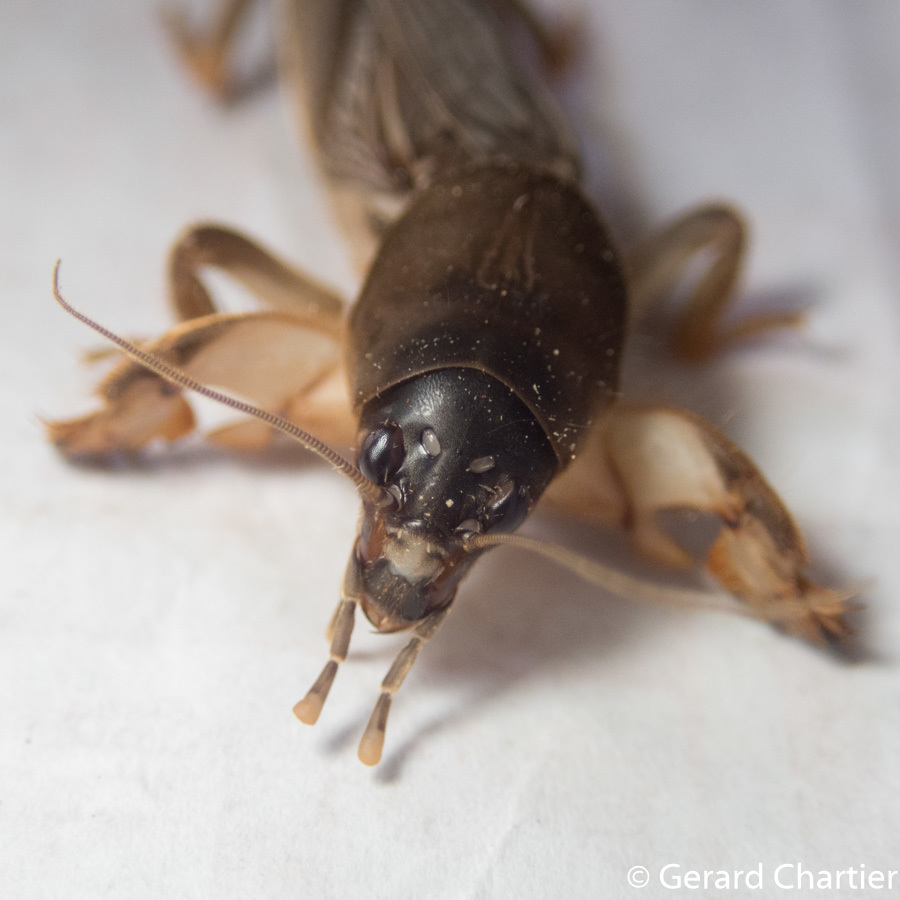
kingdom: Animalia
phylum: Arthropoda
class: Insecta
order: Orthoptera
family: Gryllotalpidae
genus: Gryllotalpa
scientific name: Gryllotalpa orientalis
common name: Grasshopper
